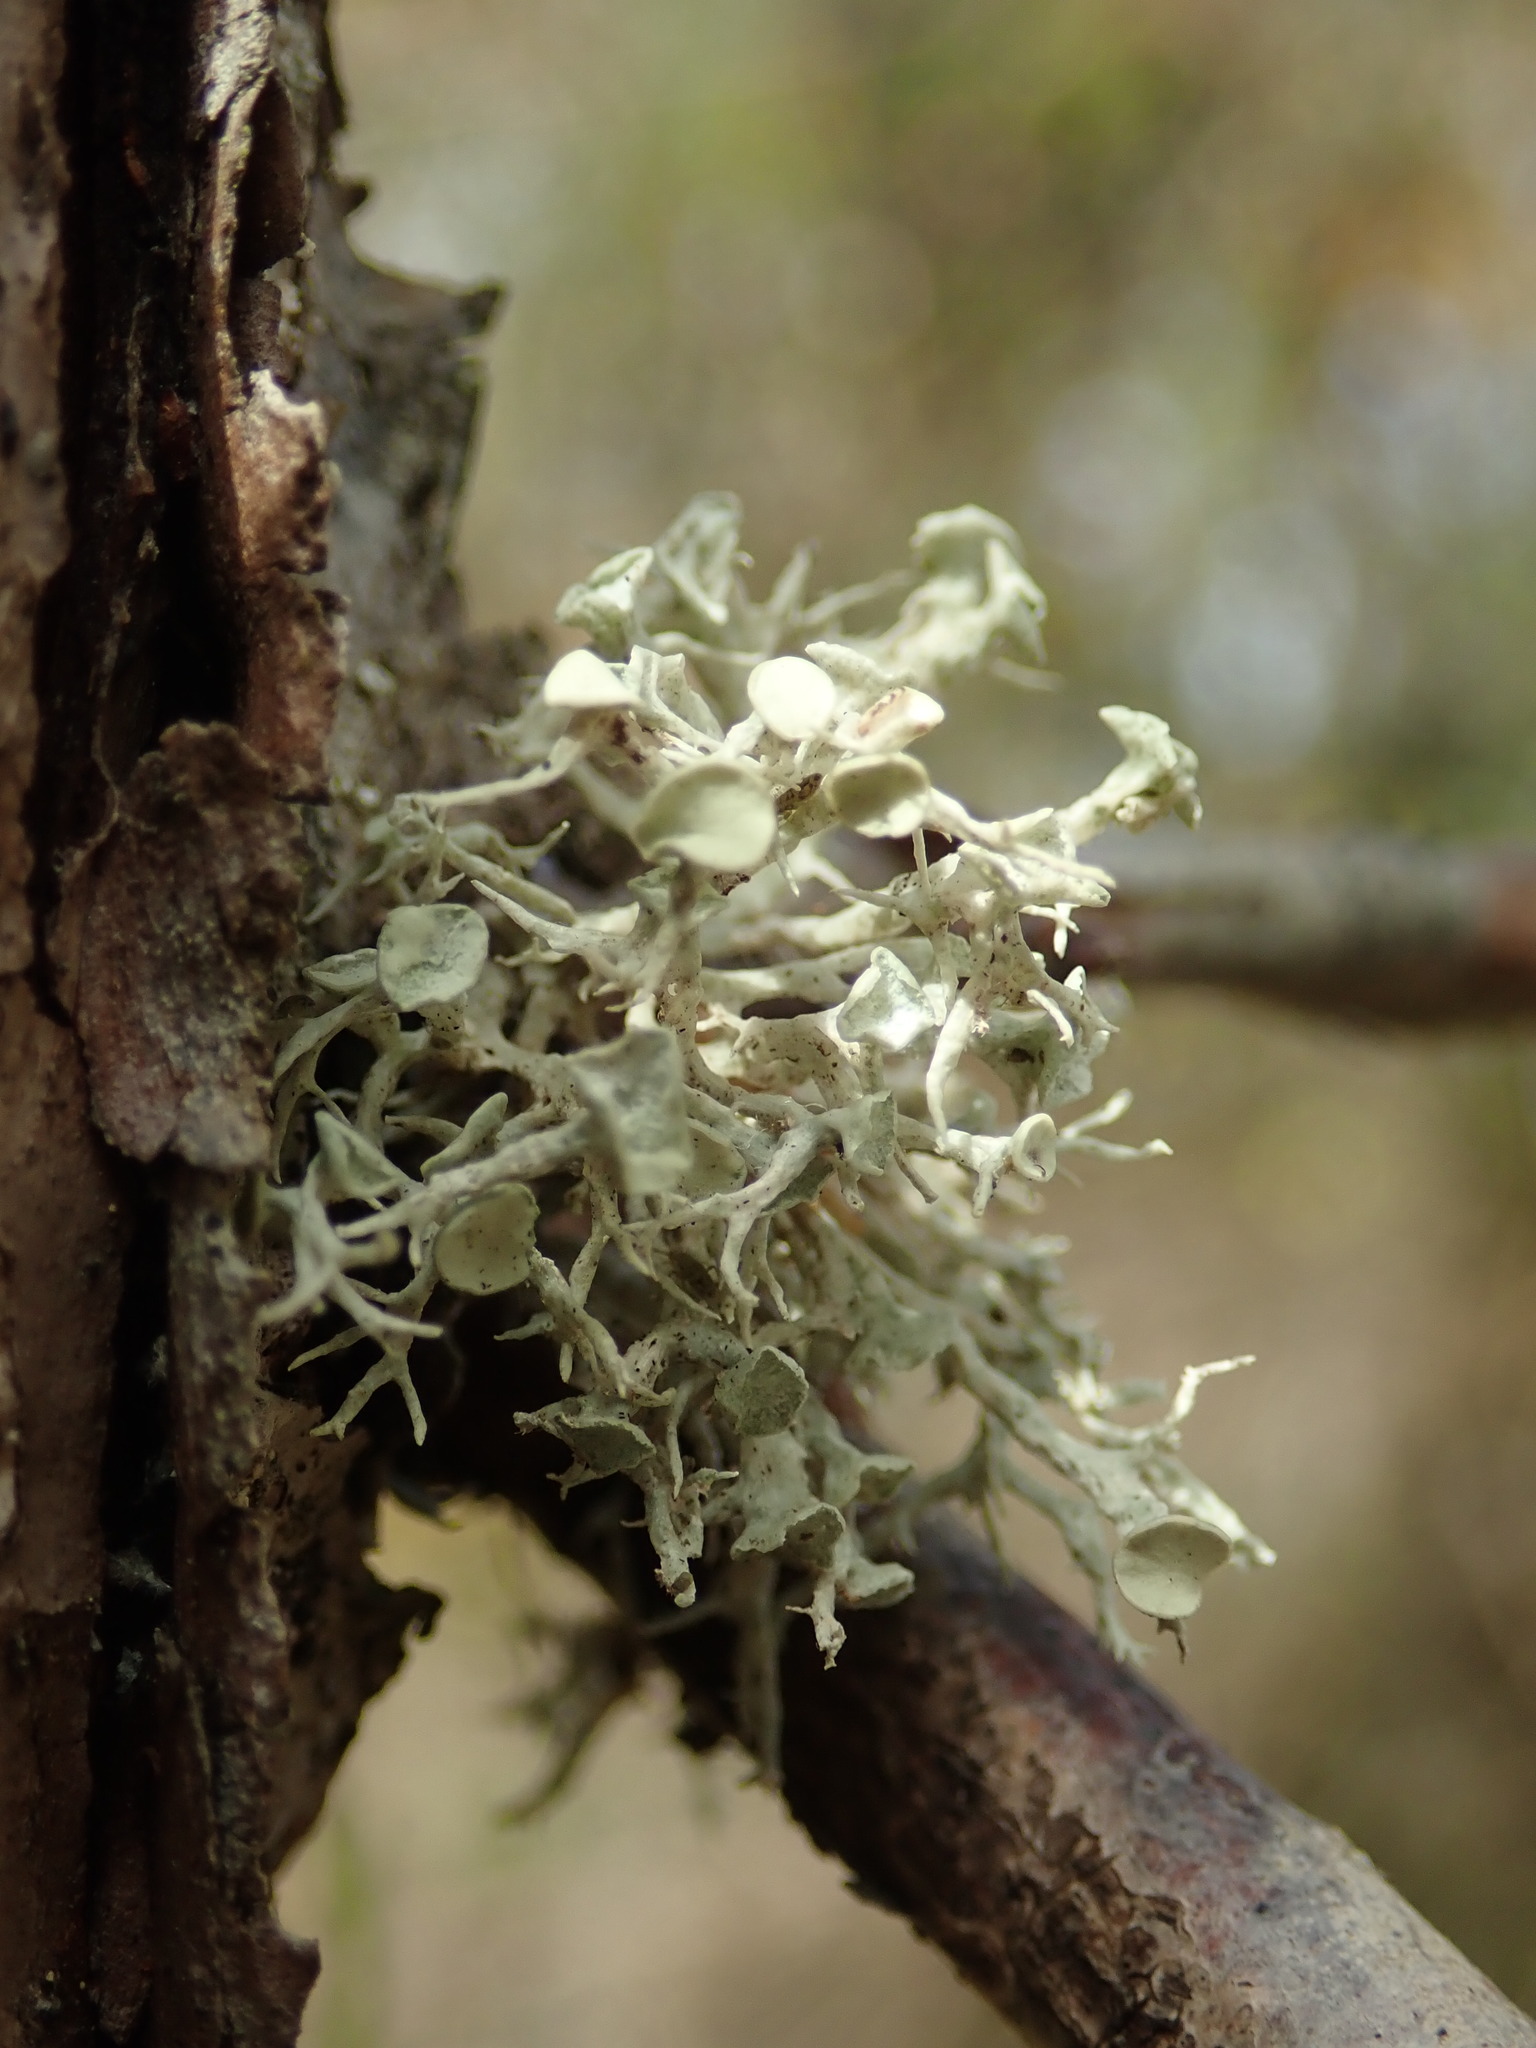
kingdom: Fungi
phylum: Ascomycota
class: Lecanoromycetes
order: Lecanorales
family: Ramalinaceae
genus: Ramalina
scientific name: Ramalina dilacerata
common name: Punctured bushy lichen
